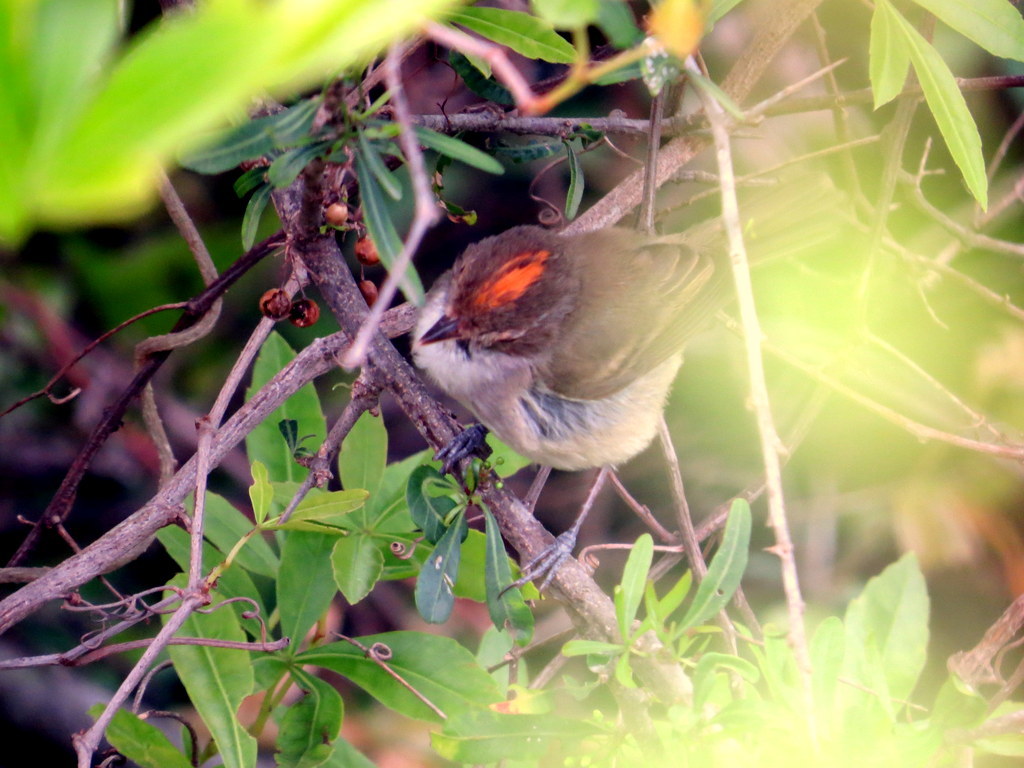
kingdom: Animalia
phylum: Chordata
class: Aves
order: Passeriformes
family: Tyrannidae
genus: Euscarthmus
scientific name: Euscarthmus meloryphus
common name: Tawny-crowned pygmy tyrant
